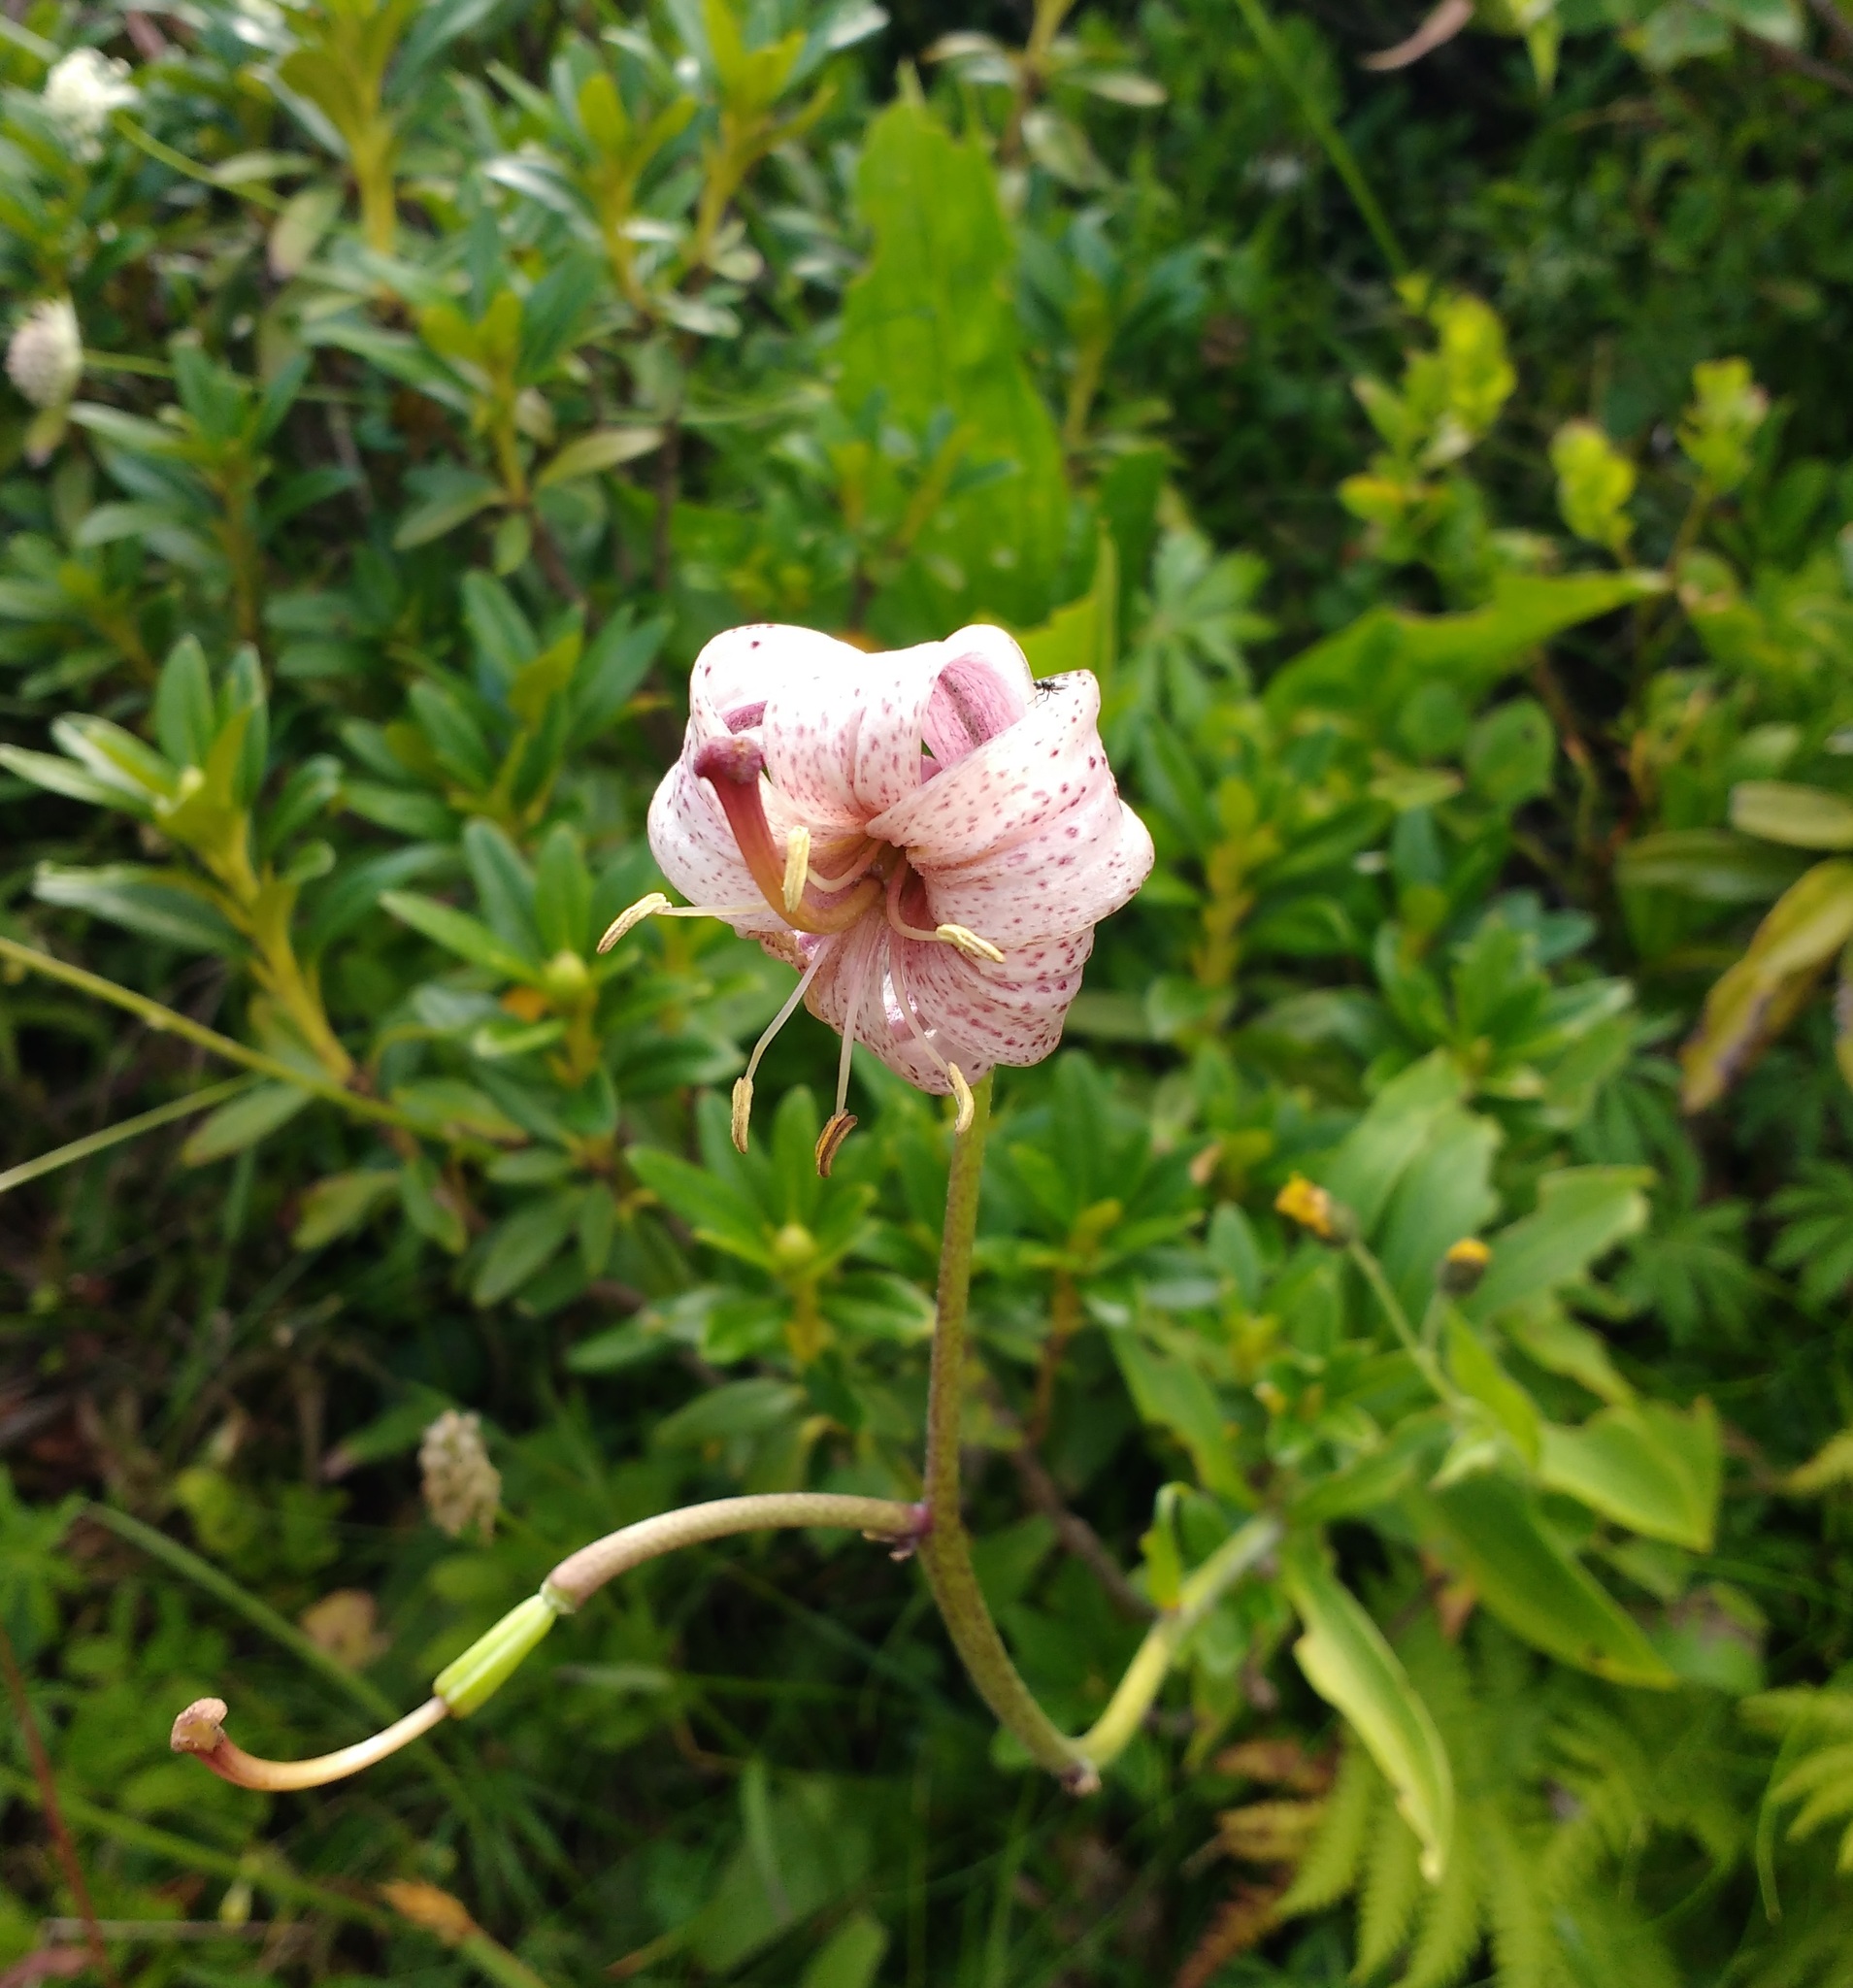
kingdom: Plantae
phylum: Tracheophyta
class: Liliopsida
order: Liliales
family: Liliaceae
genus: Lilium
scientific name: Lilium martagon
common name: Martagon lily
